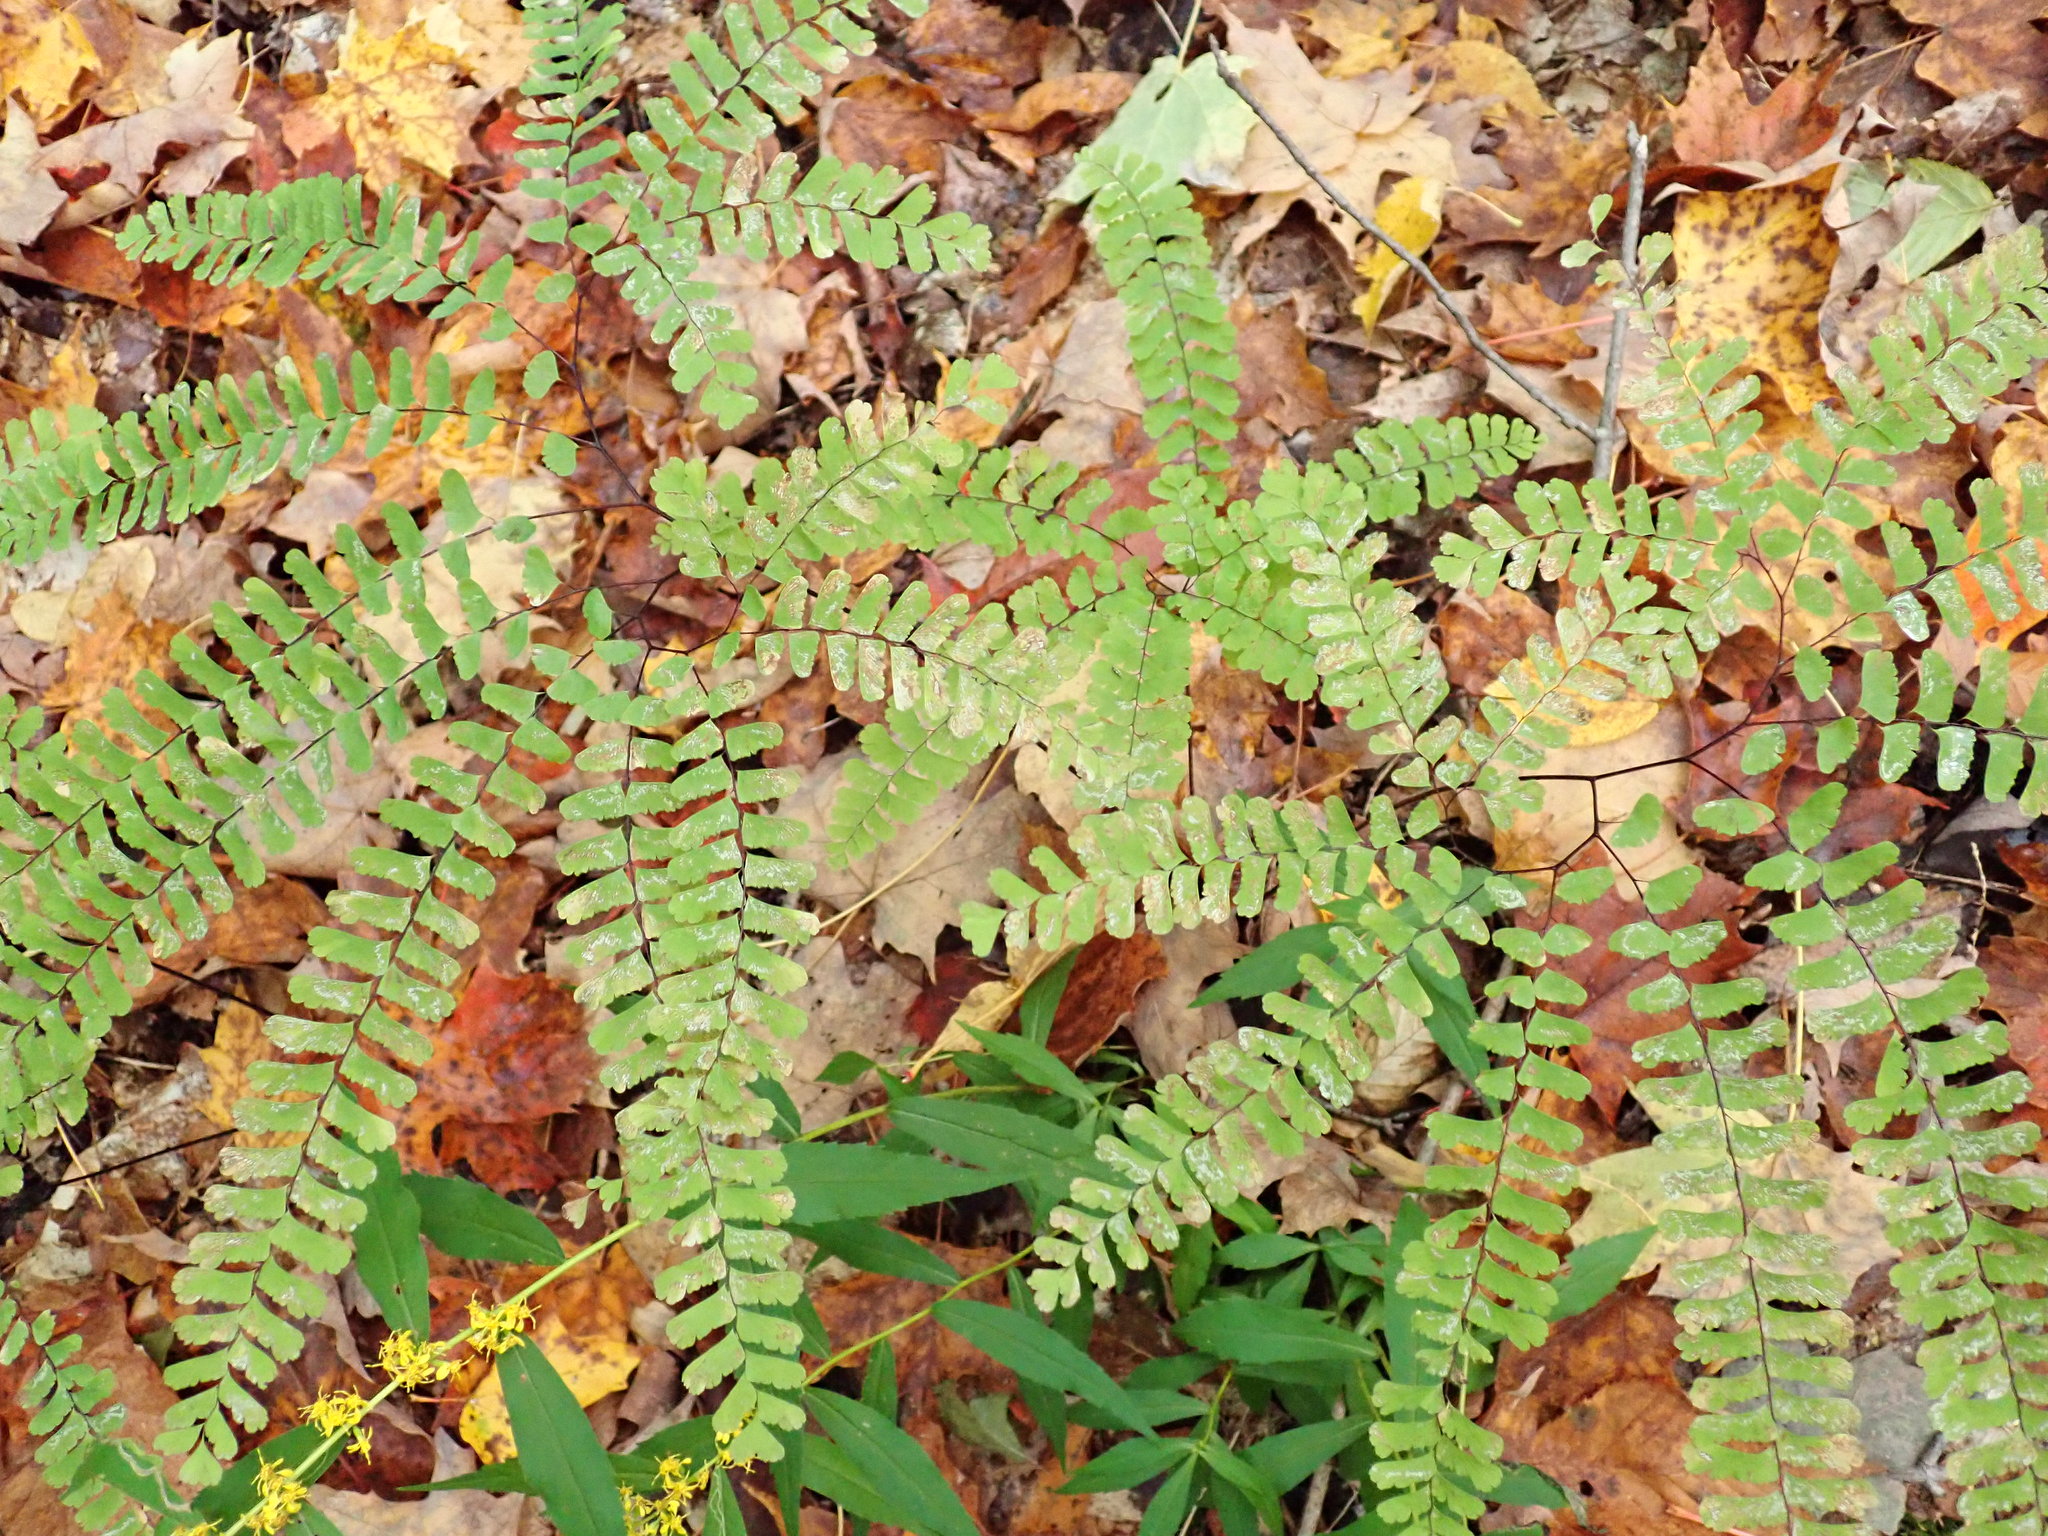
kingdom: Plantae
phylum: Tracheophyta
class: Polypodiopsida
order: Polypodiales
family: Pteridaceae
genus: Adiantum
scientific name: Adiantum pedatum
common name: Five-finger fern
